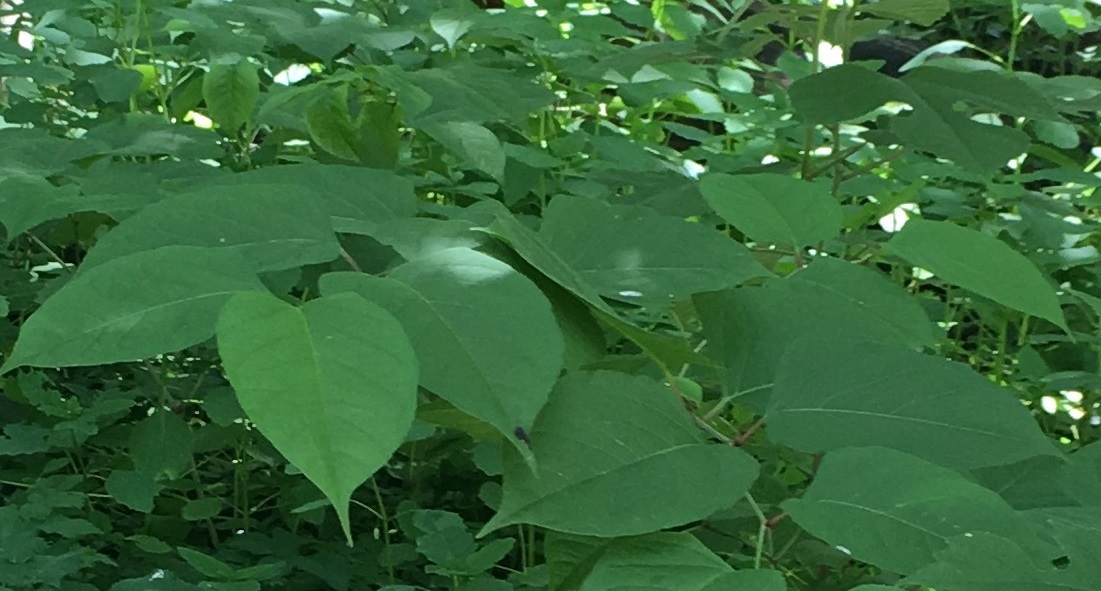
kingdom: Plantae
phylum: Tracheophyta
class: Magnoliopsida
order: Caryophyllales
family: Polygonaceae
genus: Reynoutria
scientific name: Reynoutria japonica
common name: Japanese knotweed
